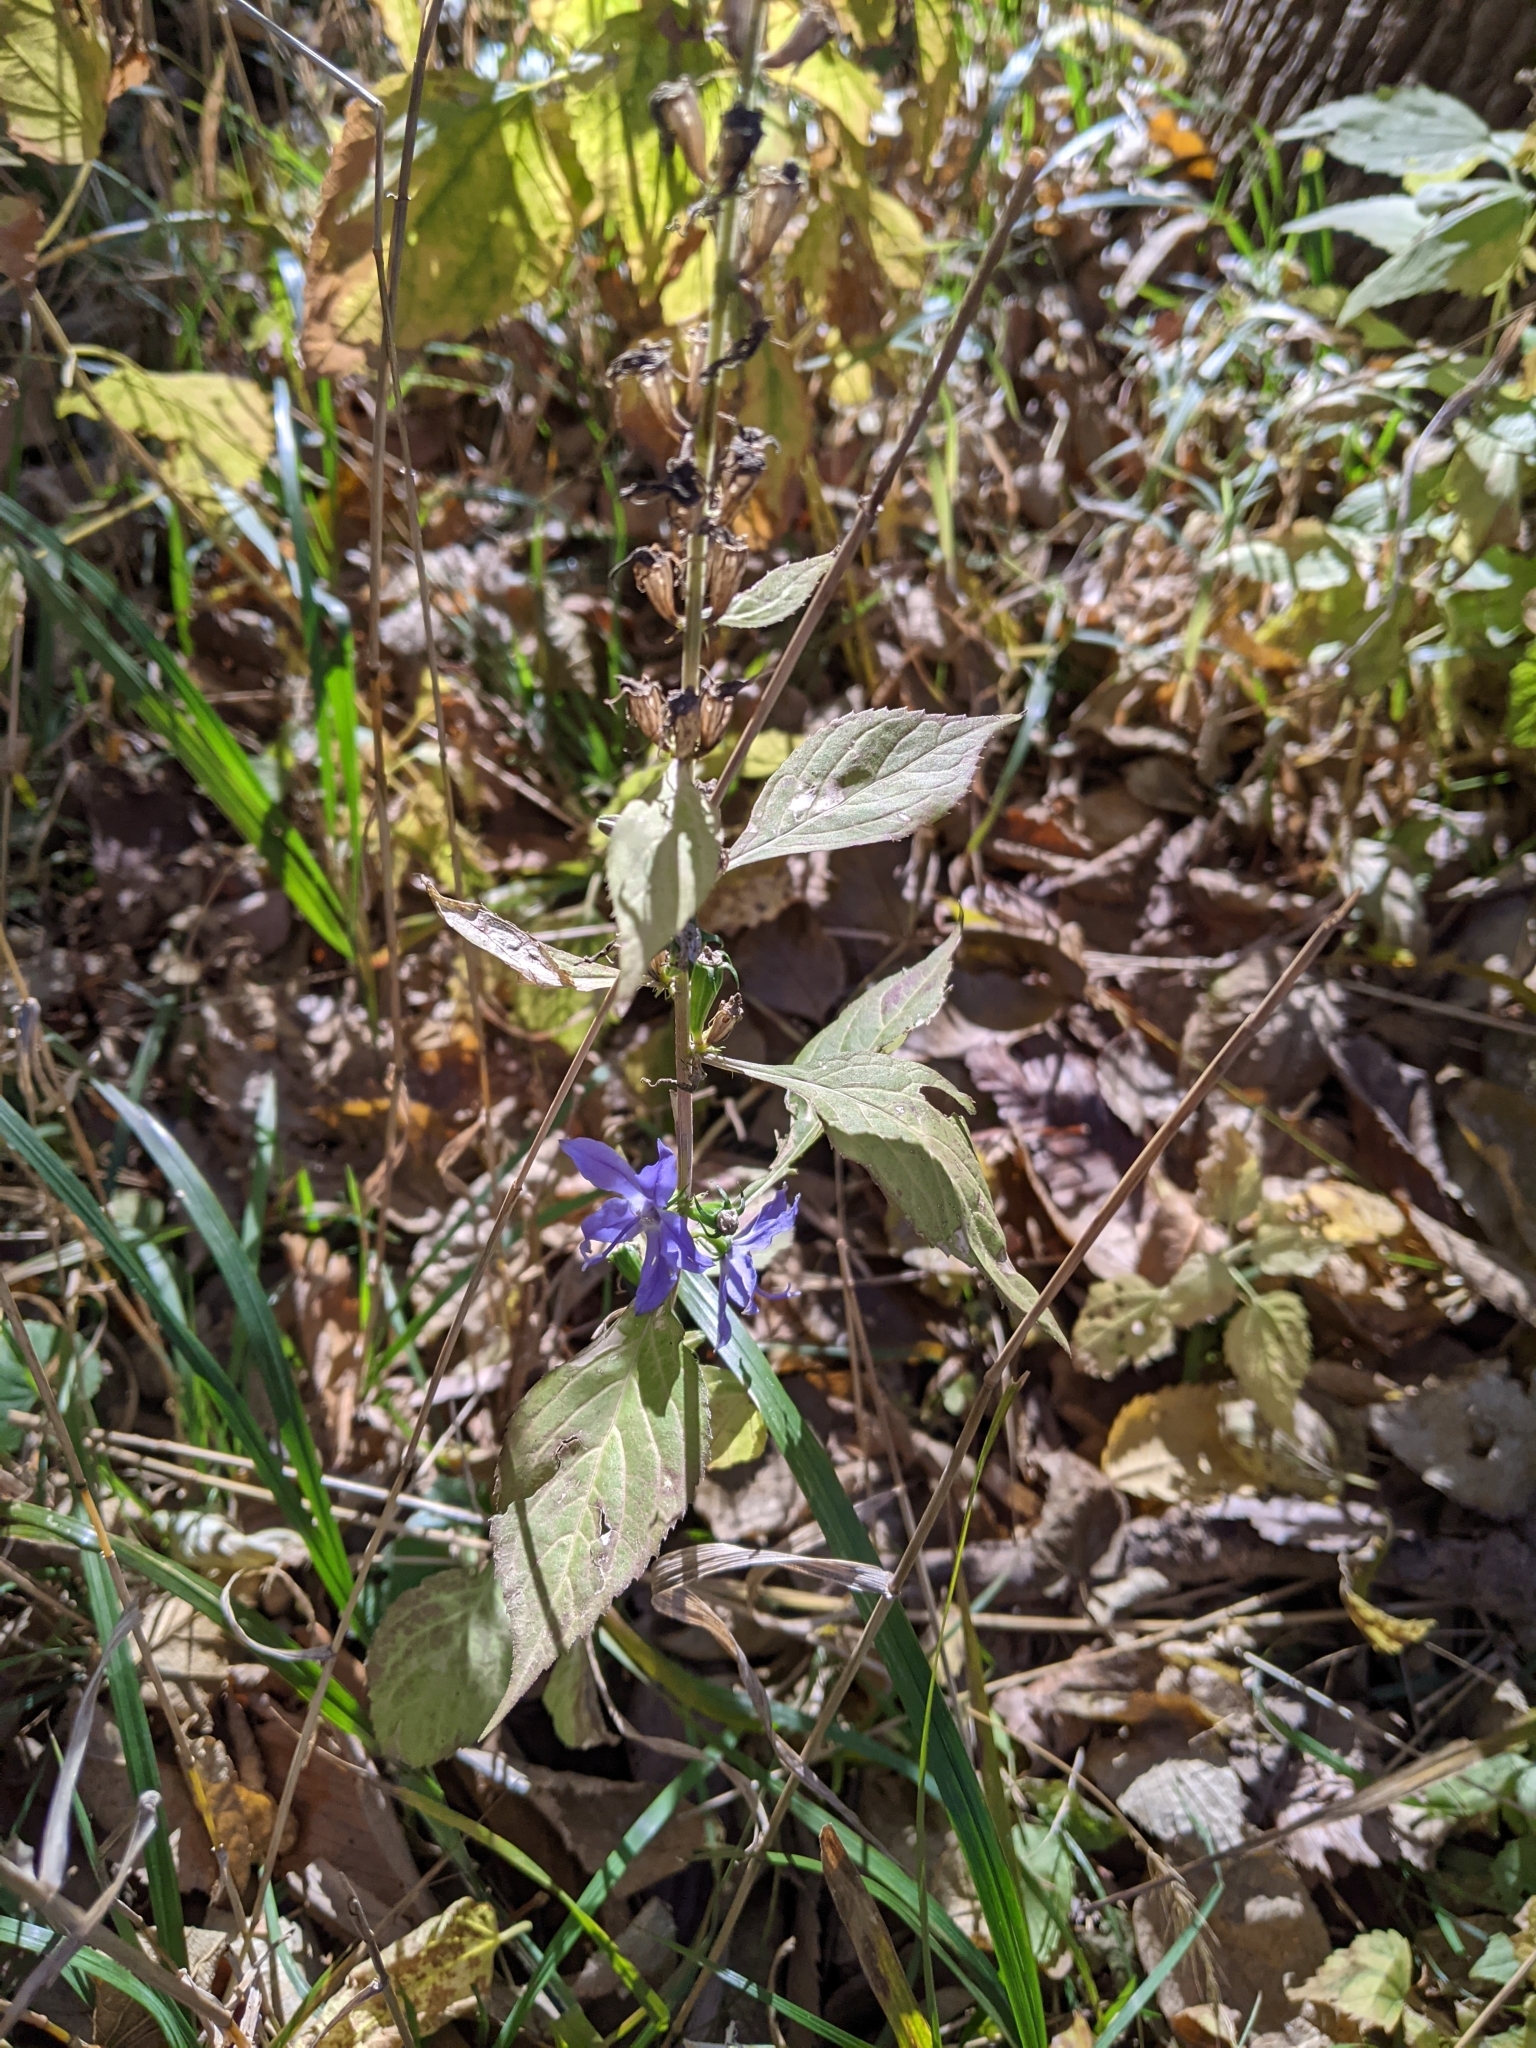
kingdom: Plantae
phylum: Tracheophyta
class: Magnoliopsida
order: Asterales
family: Campanulaceae
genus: Campanulastrum
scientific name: Campanulastrum americanum
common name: American bellflower
